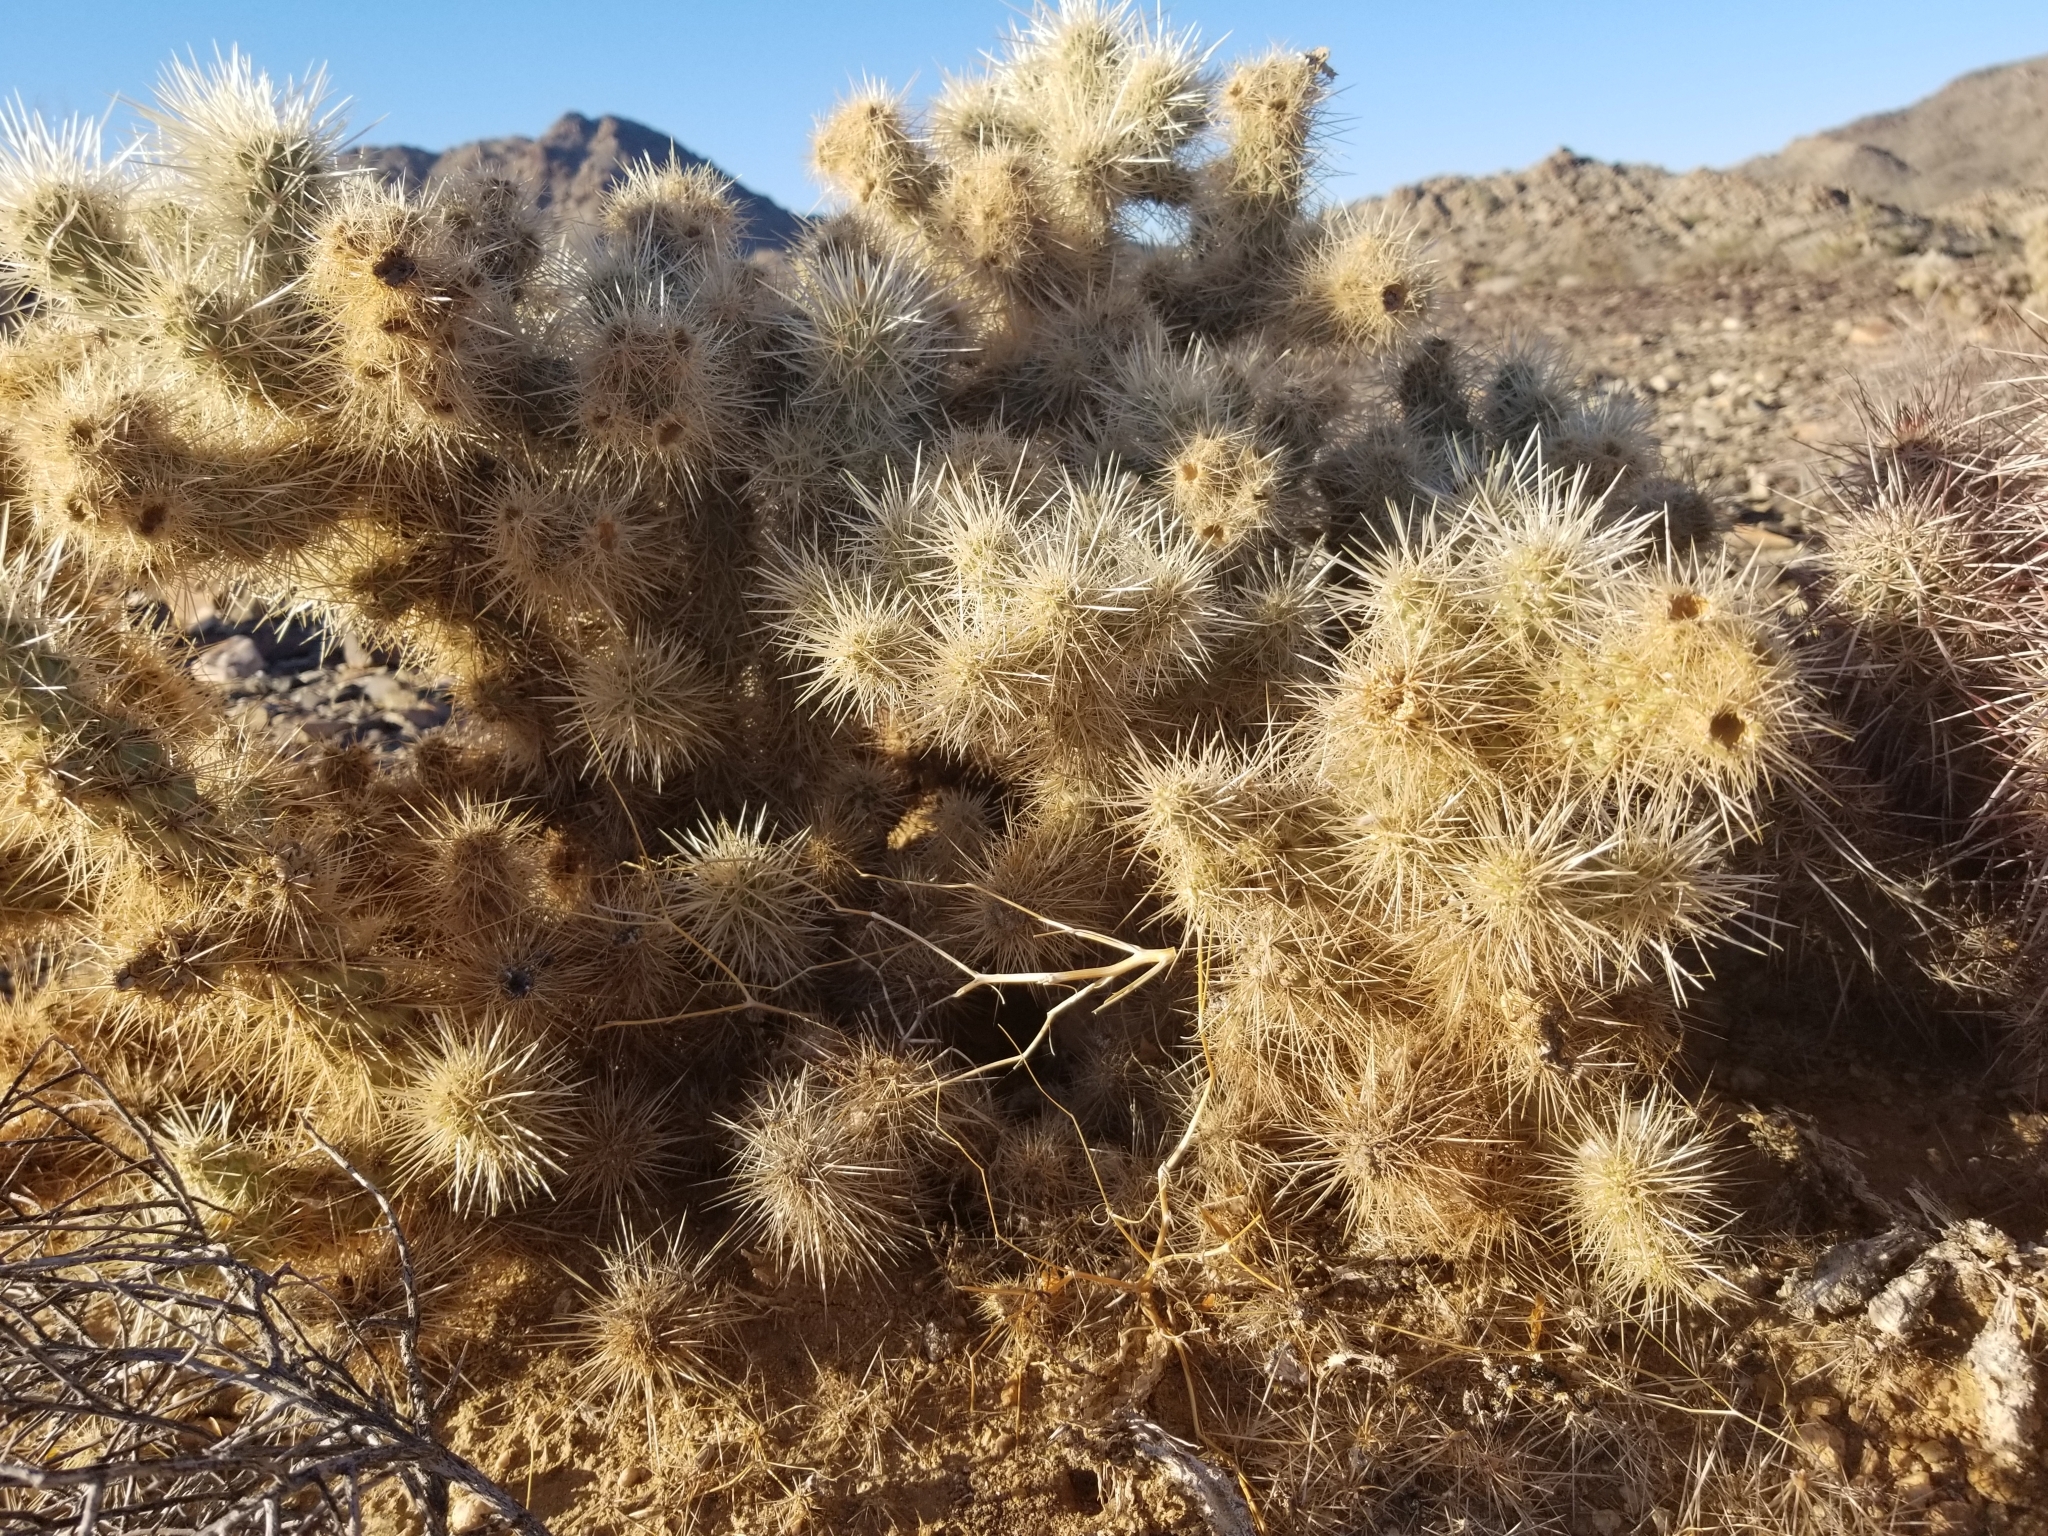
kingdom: Plantae
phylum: Tracheophyta
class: Magnoliopsida
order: Caryophyllales
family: Cactaceae
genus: Cylindropuntia
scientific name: Cylindropuntia chuckwallensis
